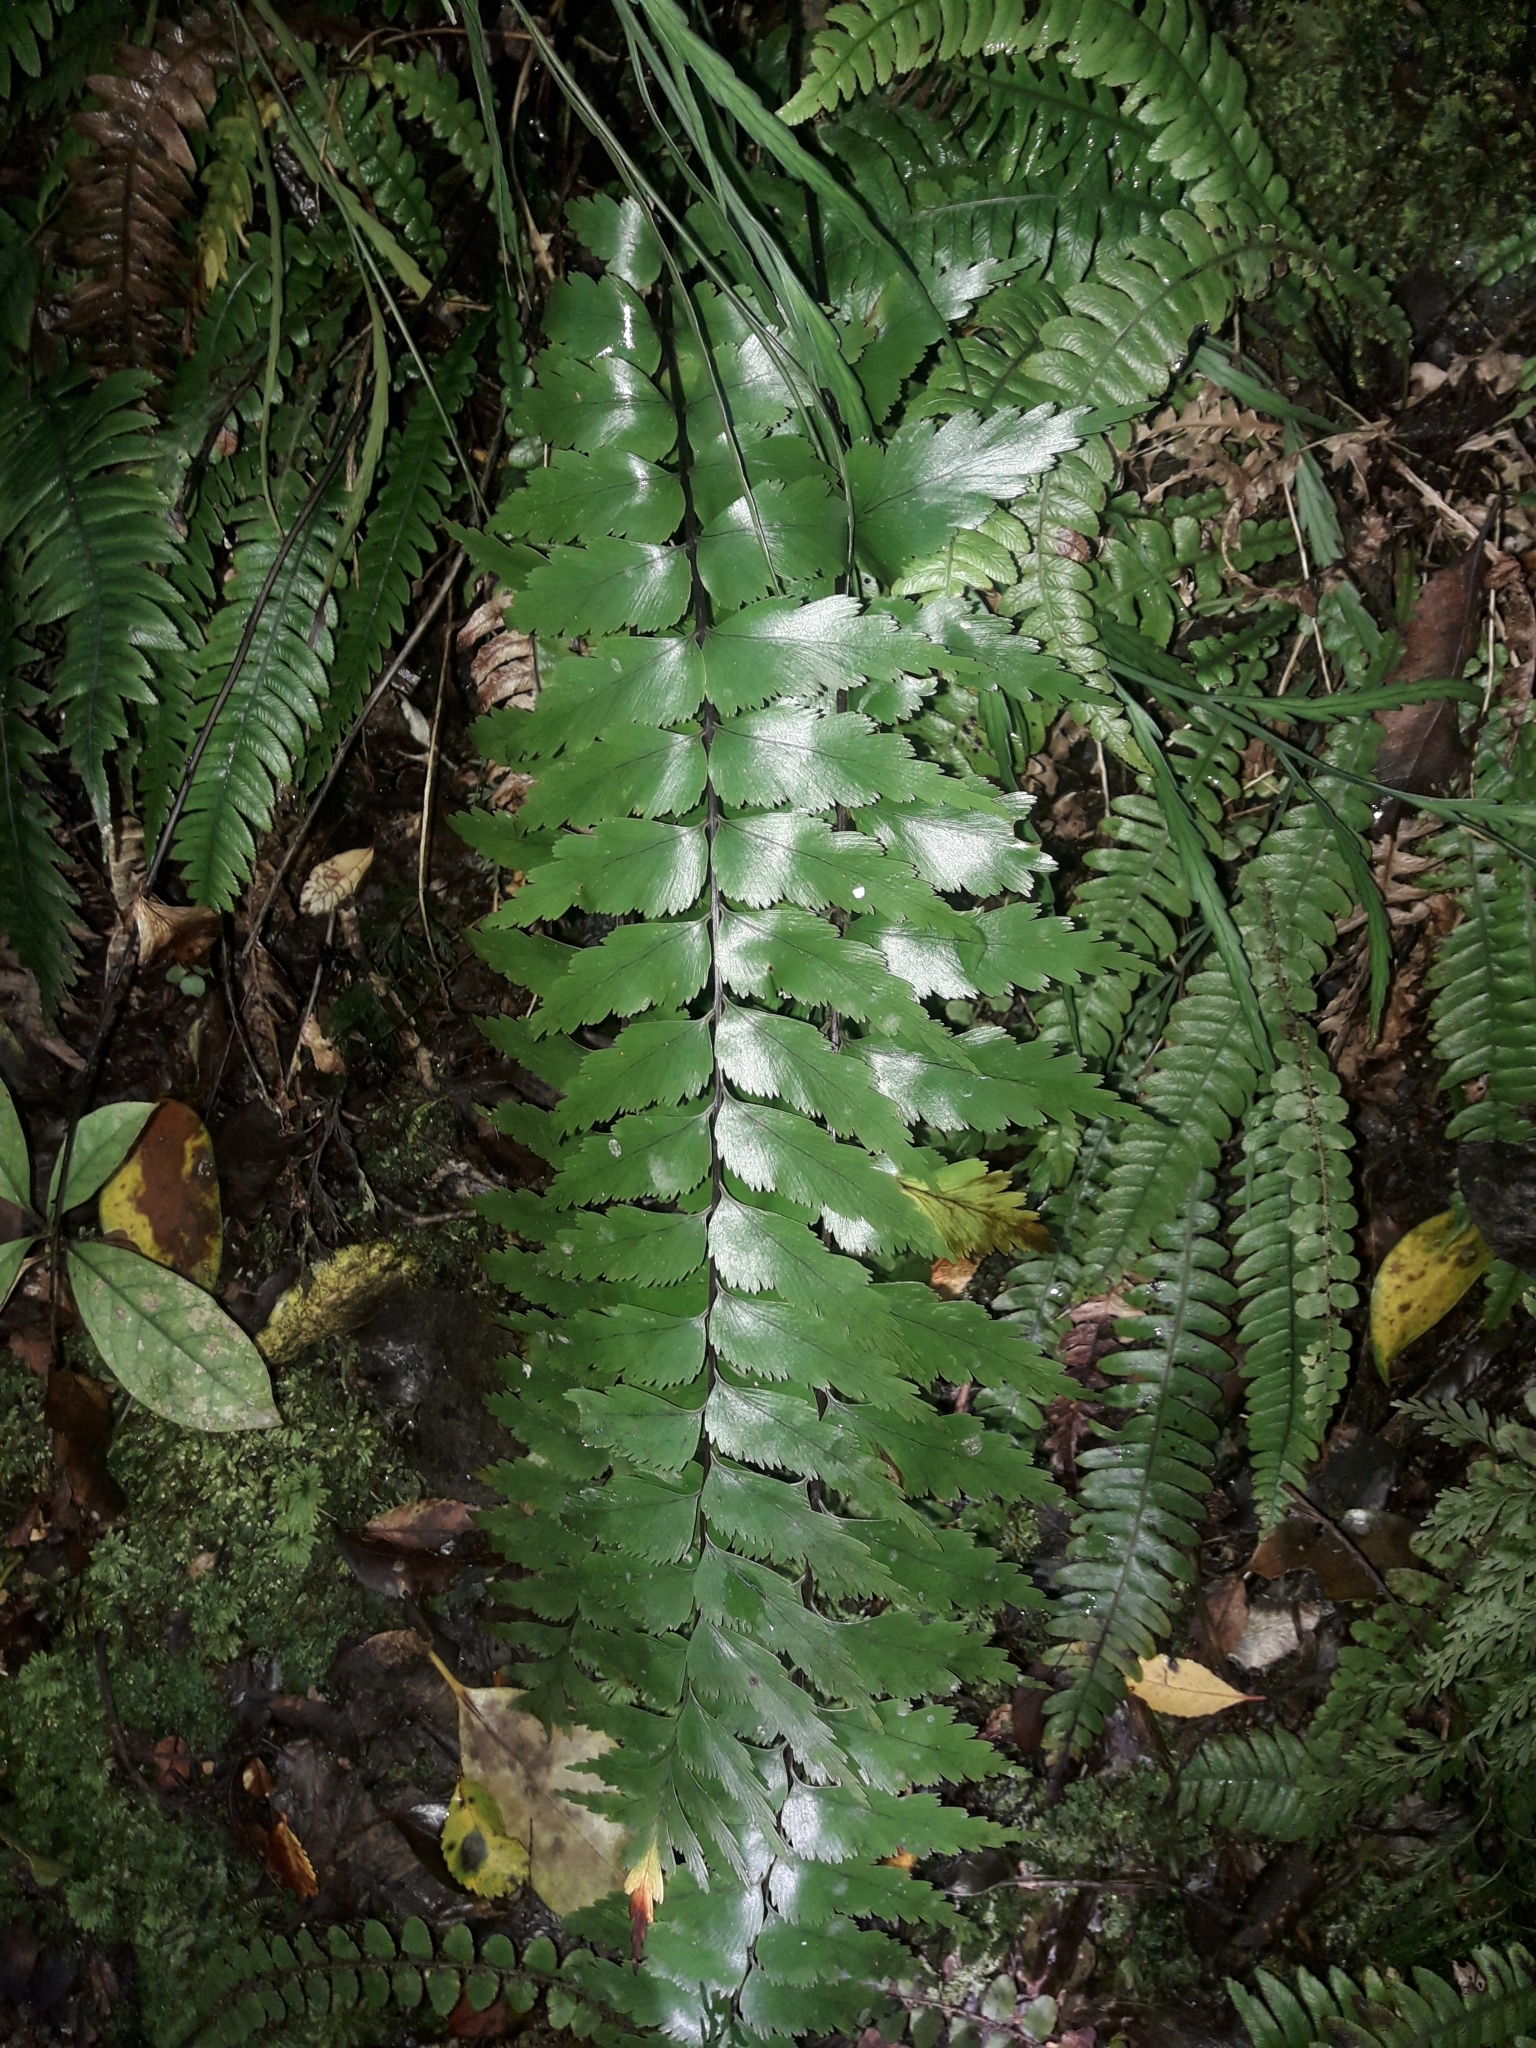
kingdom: Plantae
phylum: Tracheophyta
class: Polypodiopsida
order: Polypodiales
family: Aspleniaceae
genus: Asplenium
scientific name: Asplenium polyodon
